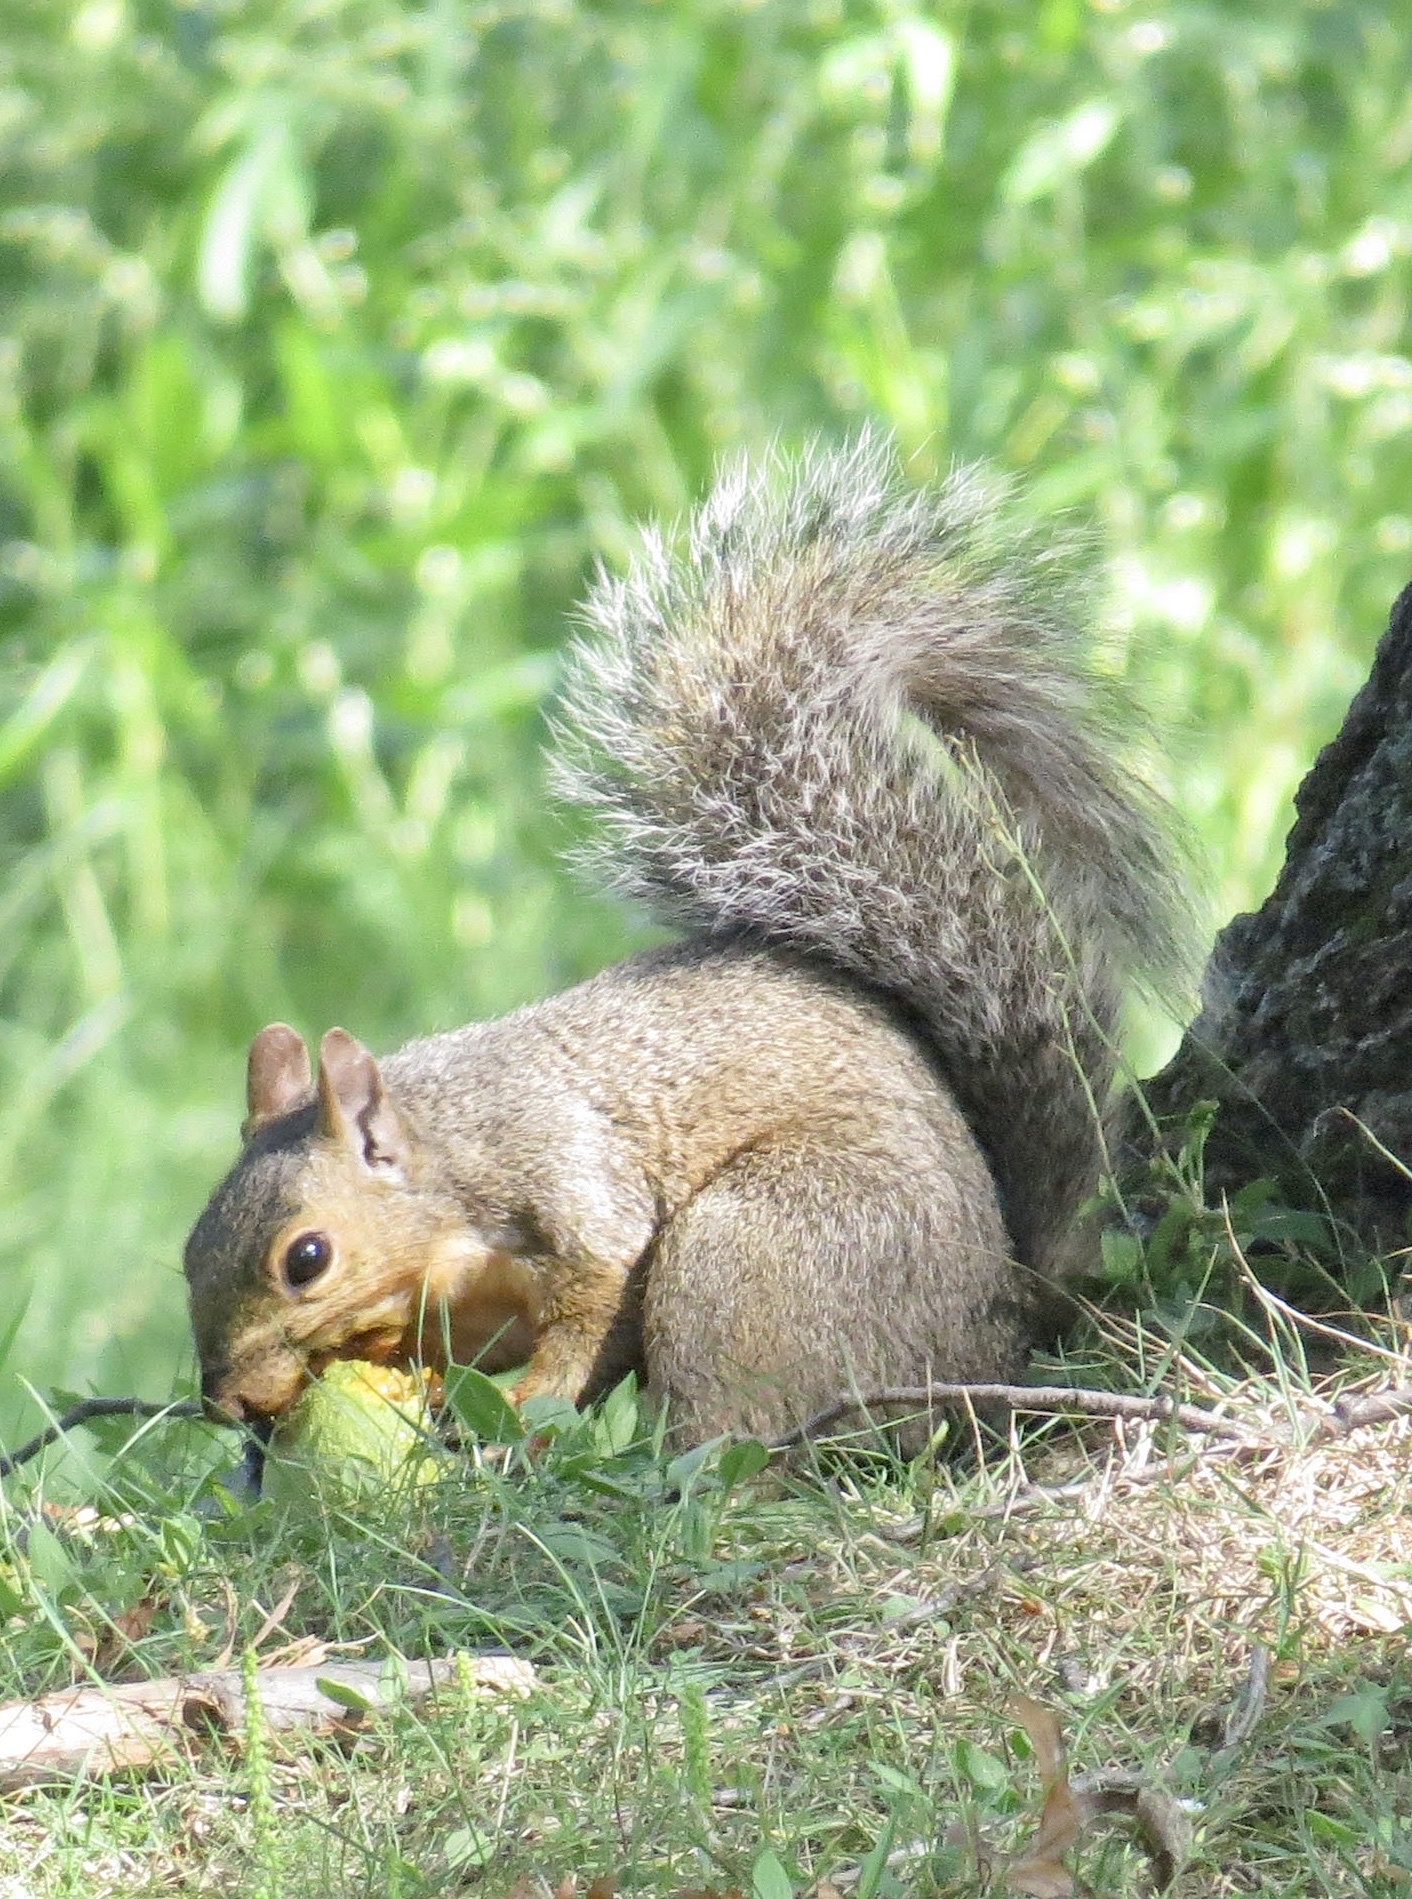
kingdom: Animalia
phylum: Chordata
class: Mammalia
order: Rodentia
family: Sciuridae
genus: Sciurus
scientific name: Sciurus carolinensis
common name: Eastern gray squirrel
